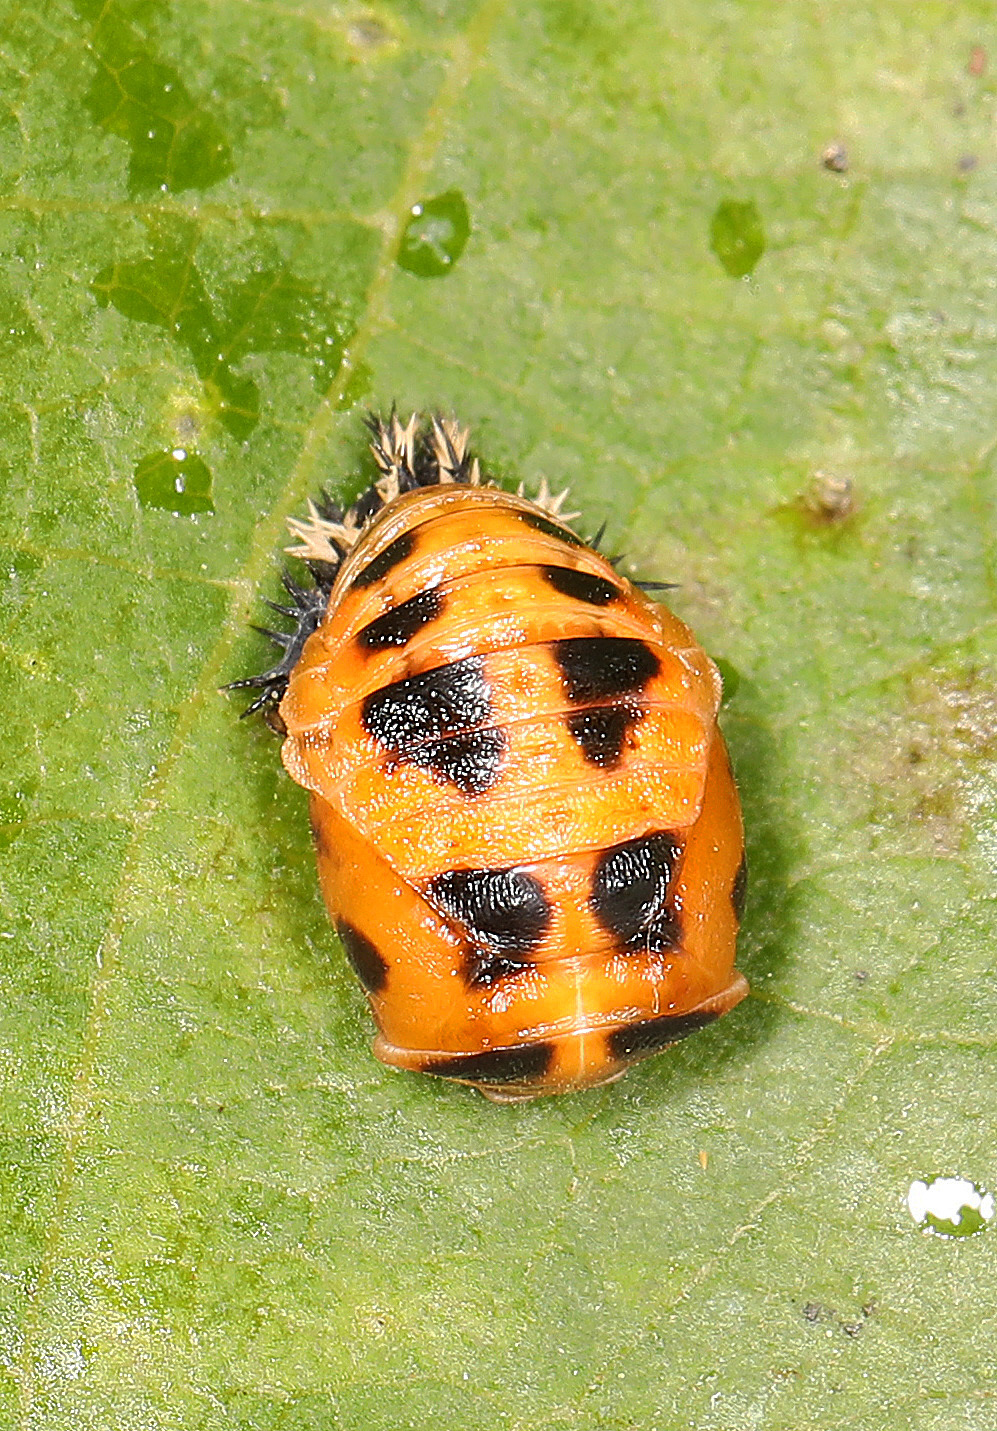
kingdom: Animalia
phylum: Arthropoda
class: Insecta
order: Coleoptera
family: Coccinellidae
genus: Harmonia
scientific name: Harmonia axyridis
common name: Harlequin ladybird
